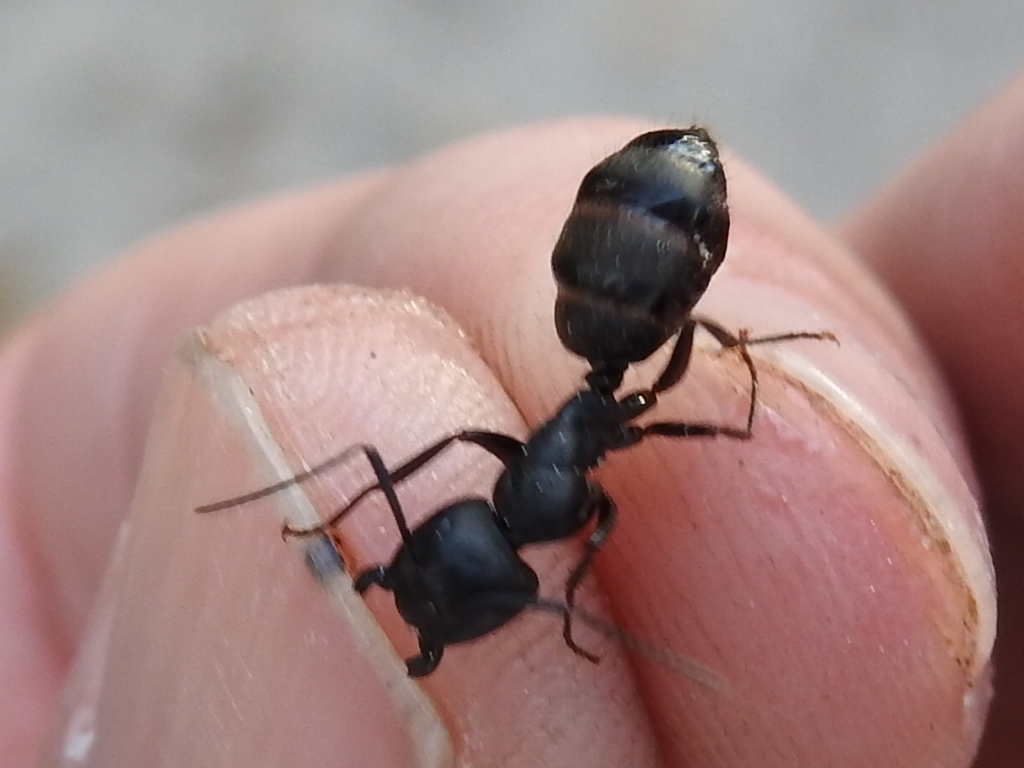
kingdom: Animalia
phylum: Arthropoda
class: Insecta
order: Hymenoptera
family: Formicidae
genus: Camponotus
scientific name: Camponotus pennsylvanicus
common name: Black carpenter ant
